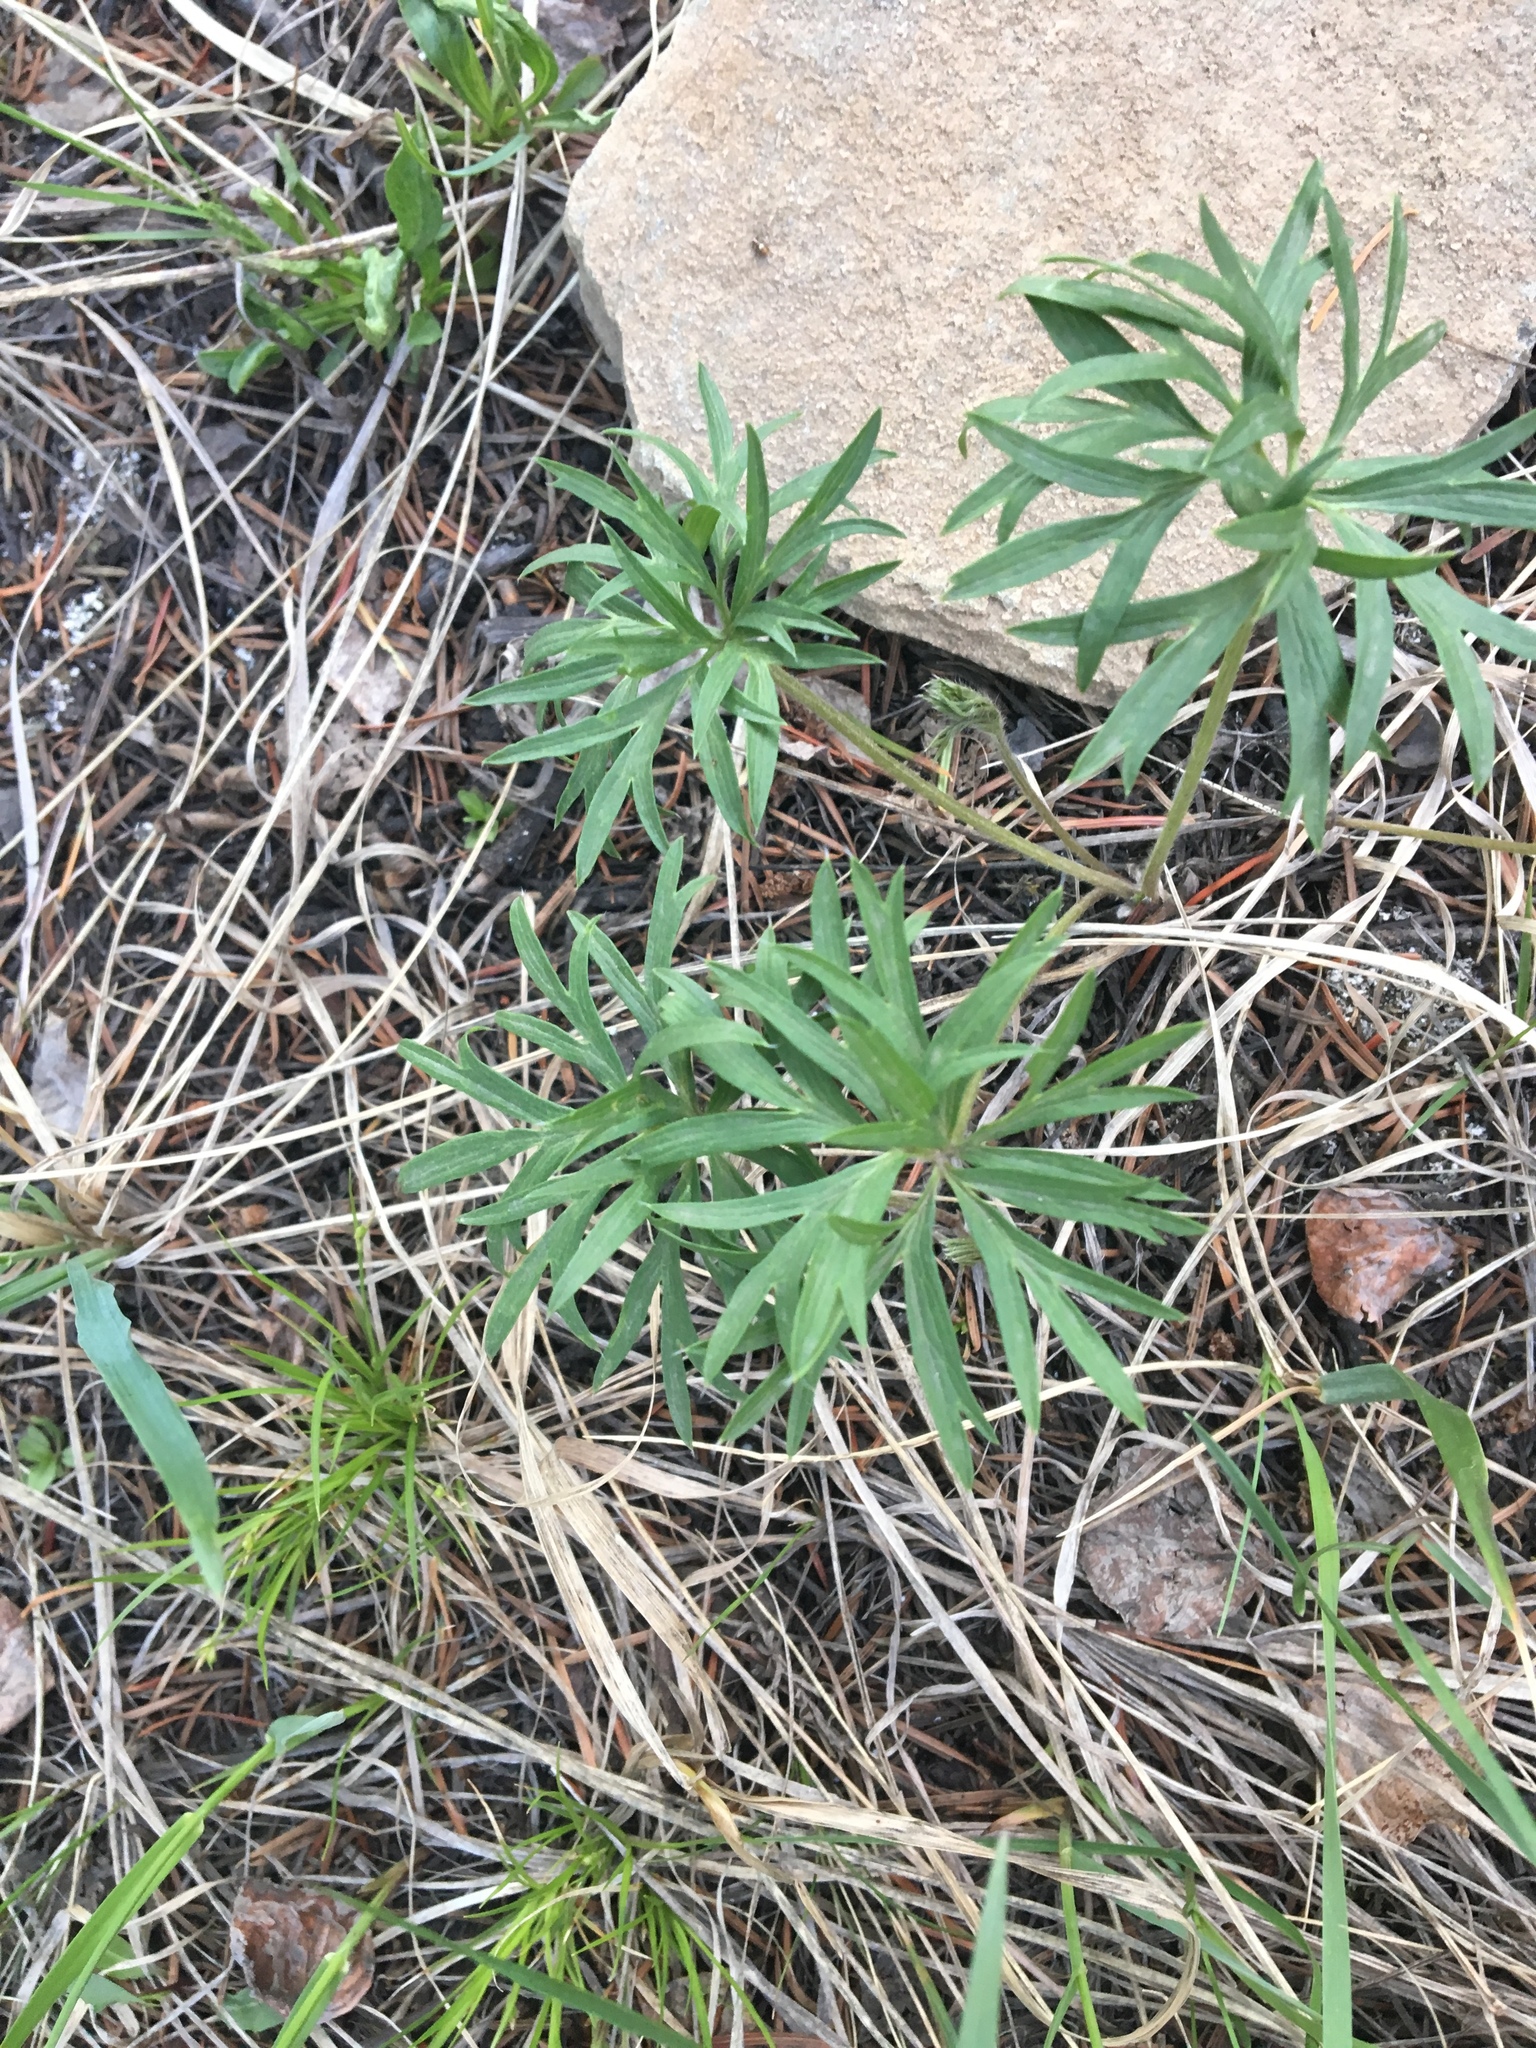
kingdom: Plantae
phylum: Tracheophyta
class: Magnoliopsida
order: Ranunculales
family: Ranunculaceae
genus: Pulsatilla
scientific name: Pulsatilla nuttalliana
